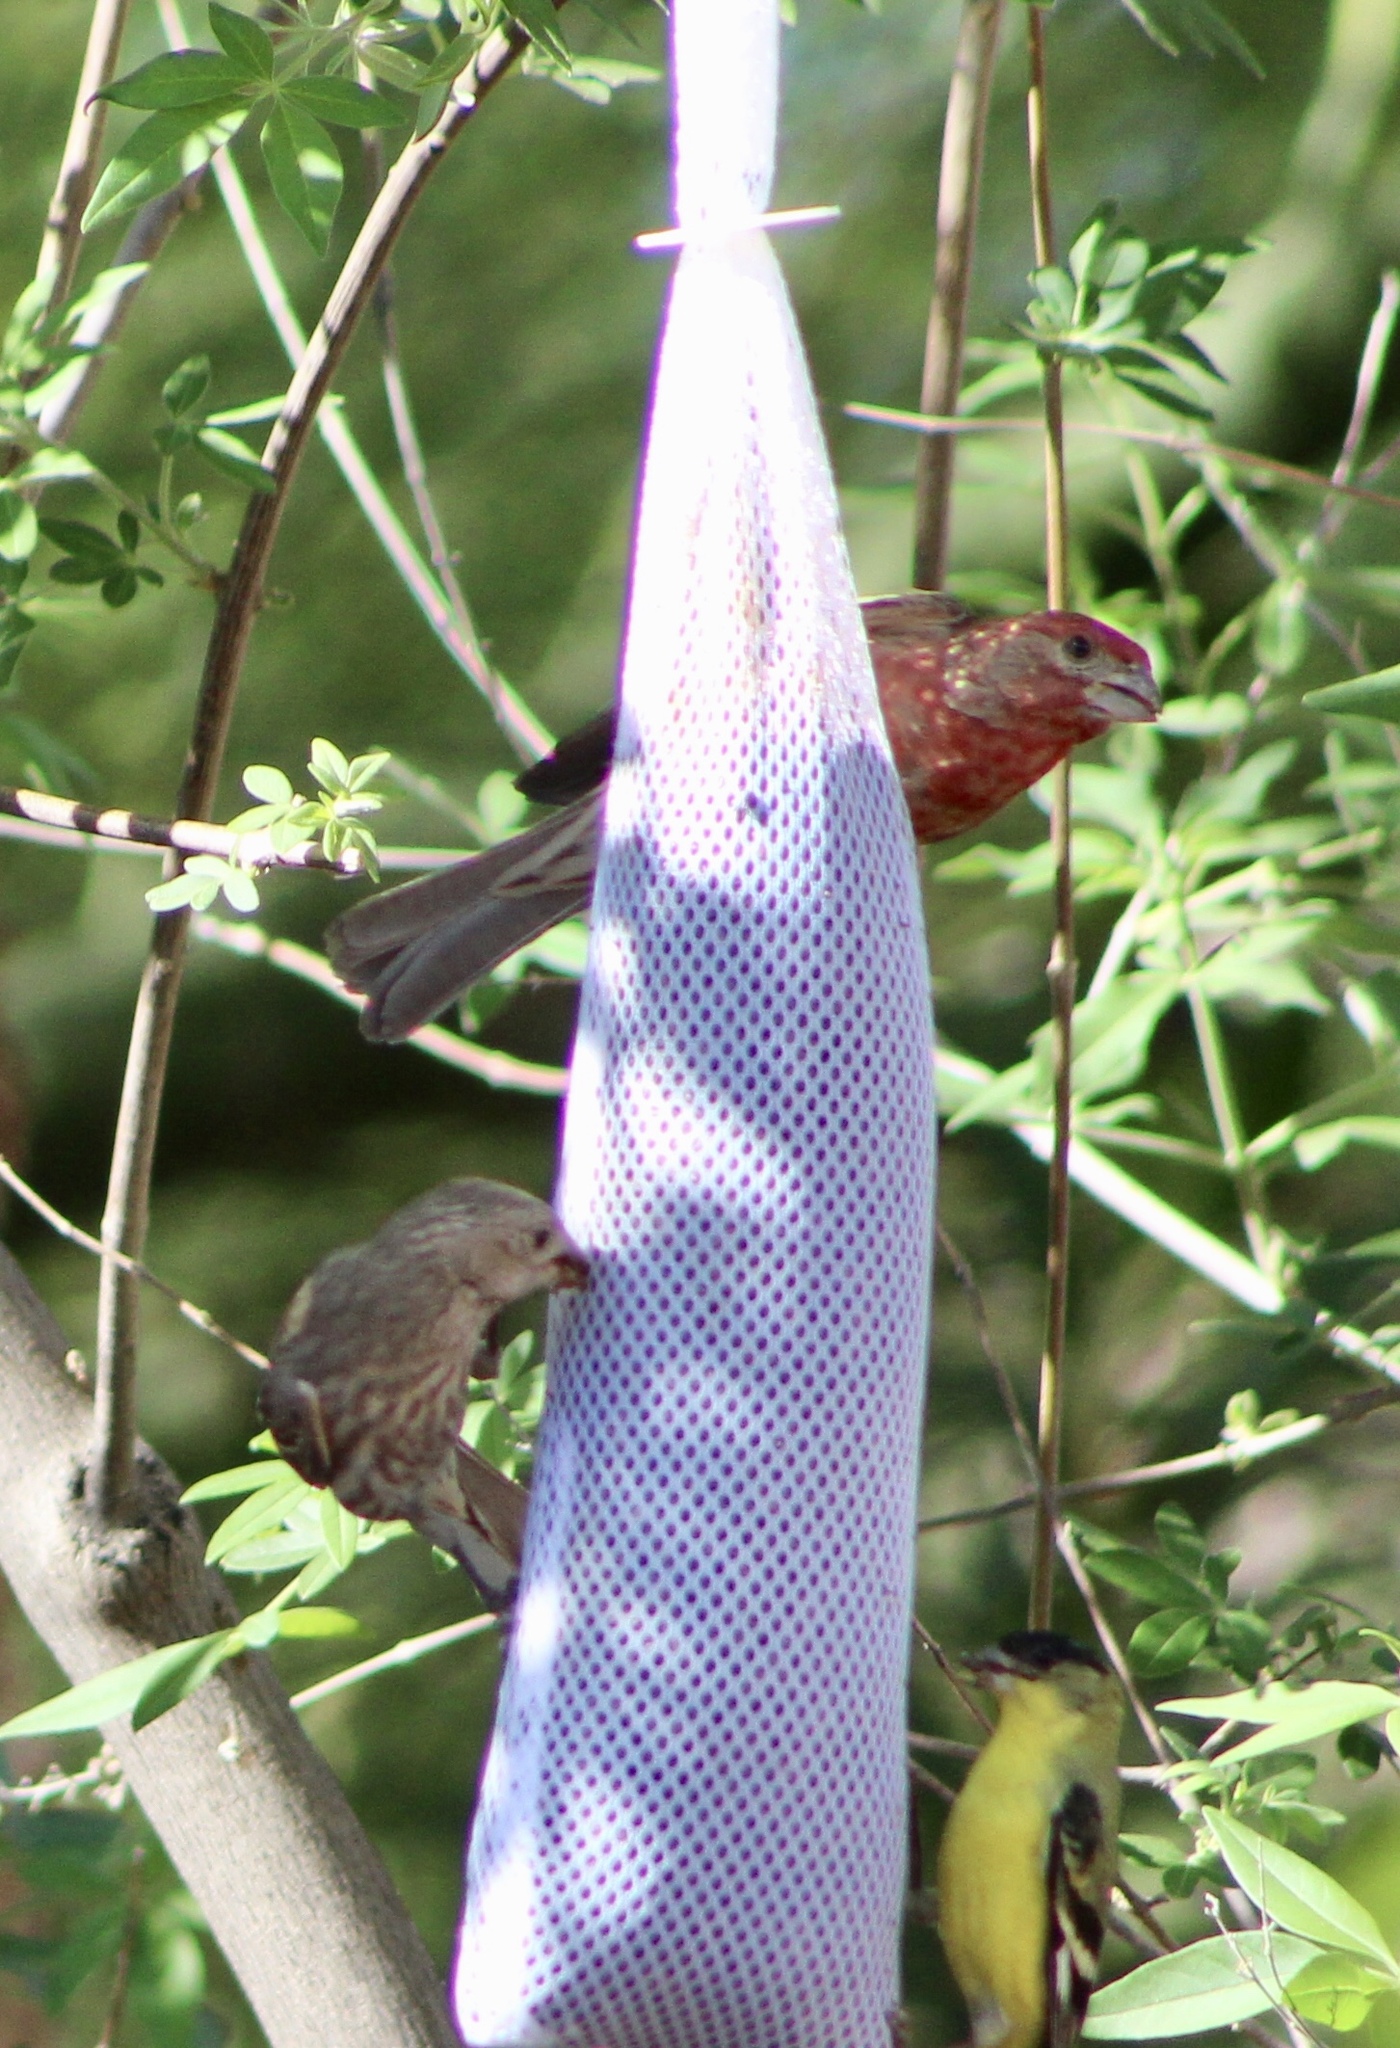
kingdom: Animalia
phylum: Chordata
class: Aves
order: Passeriformes
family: Fringillidae
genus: Haemorhous
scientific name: Haemorhous mexicanus
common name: House finch
